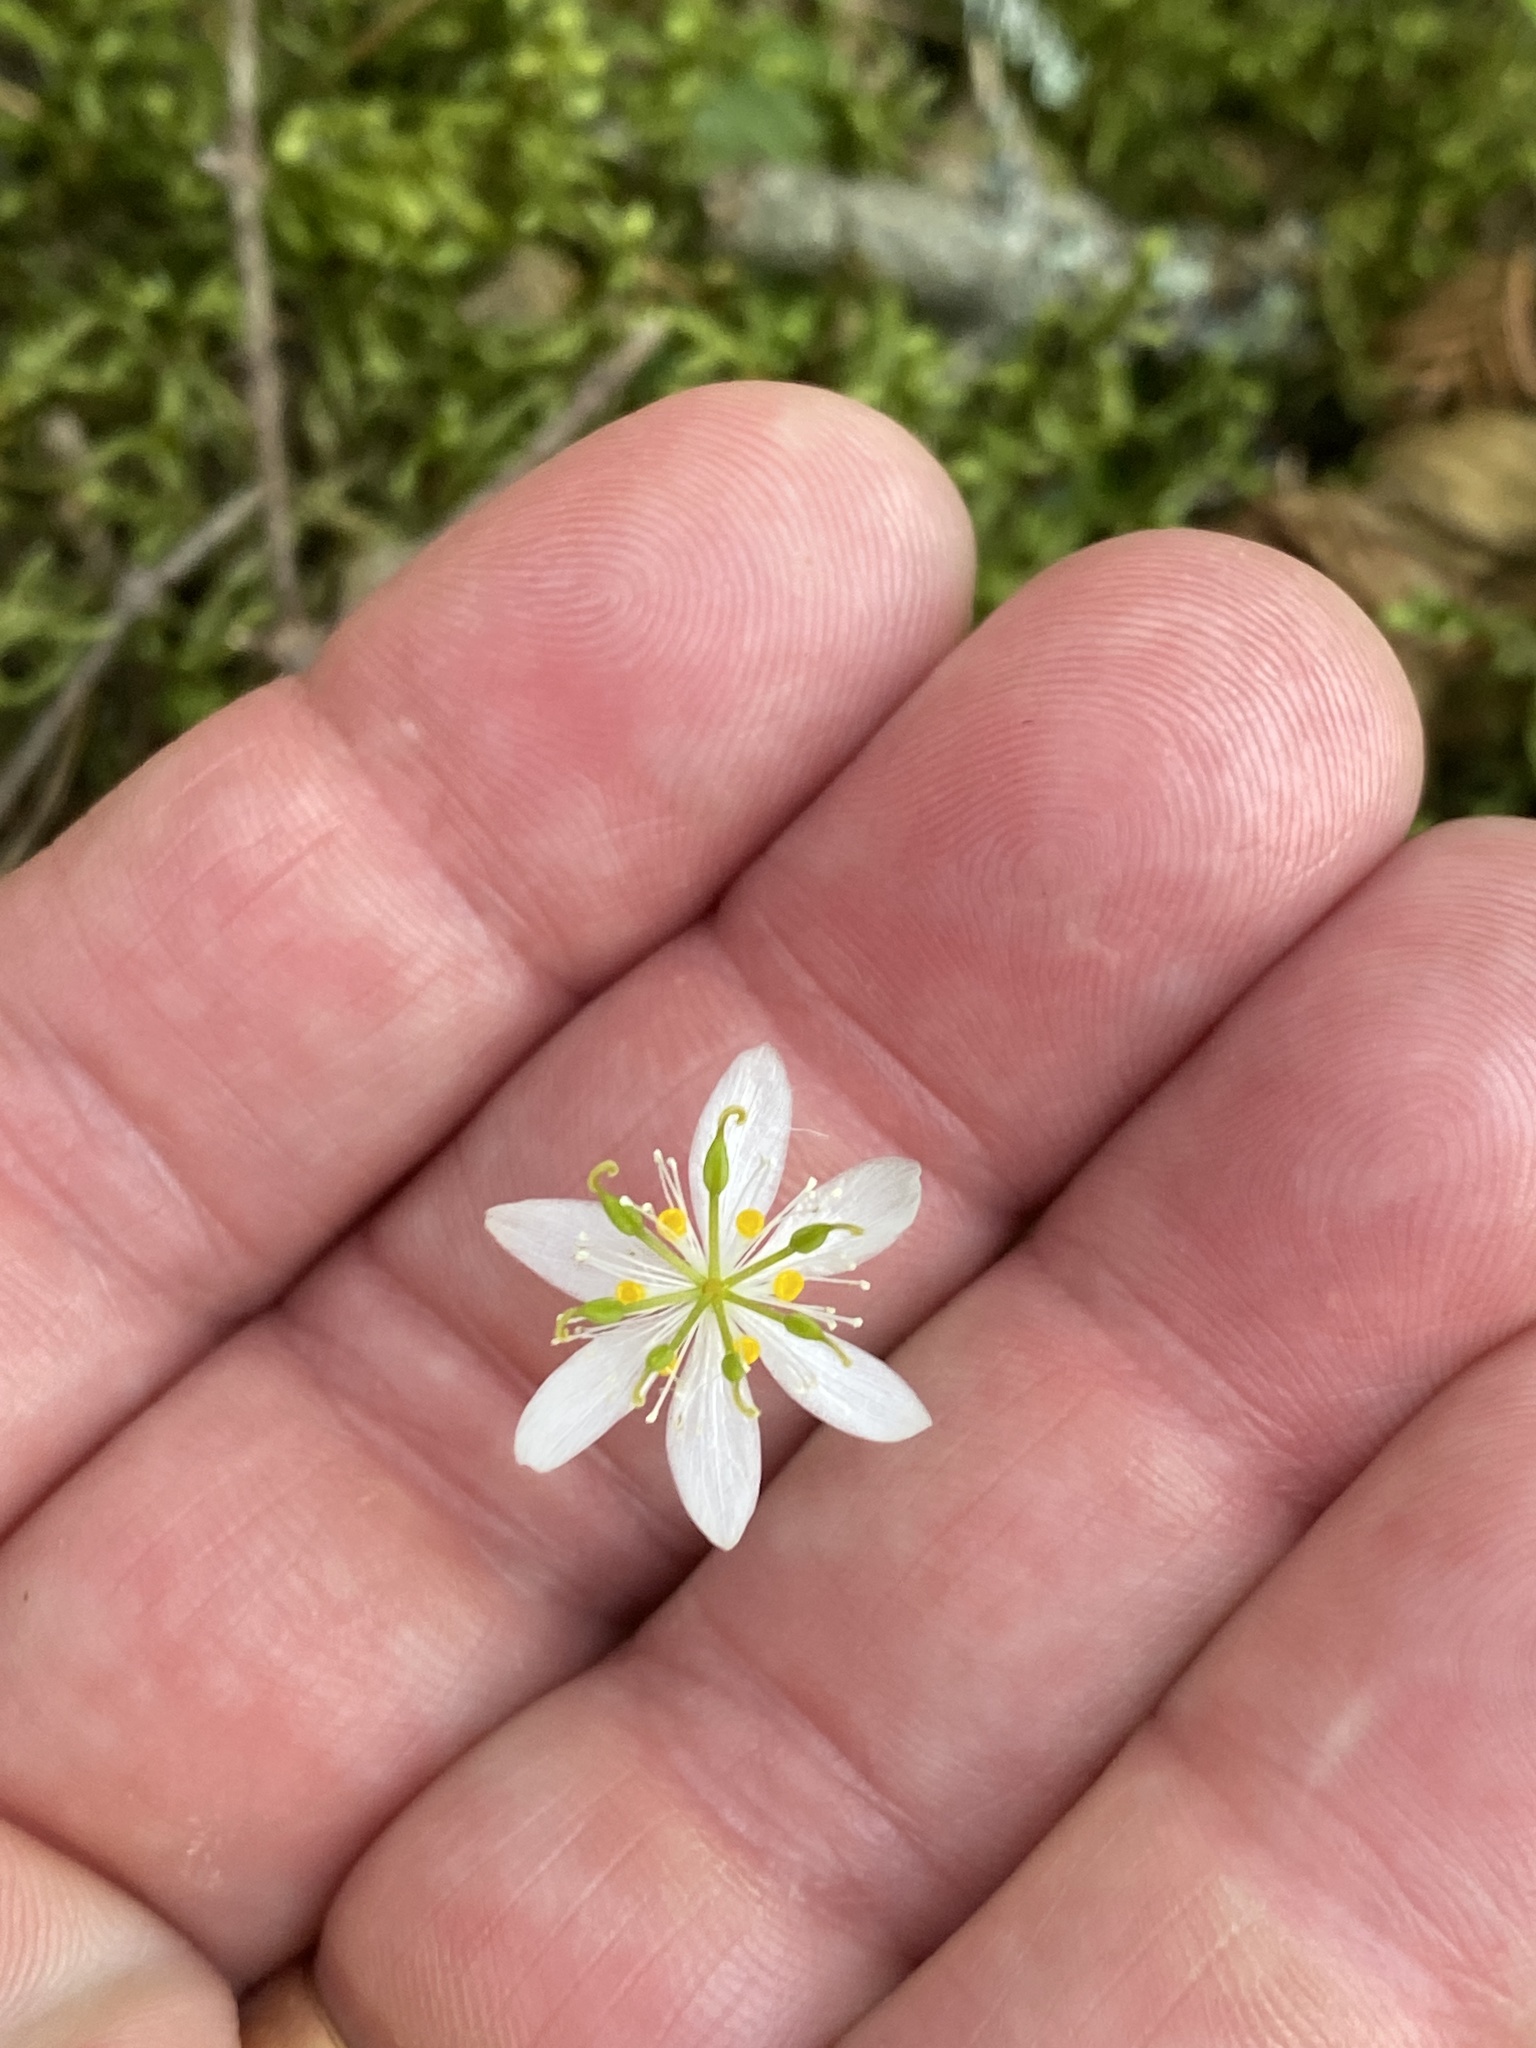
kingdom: Plantae
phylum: Tracheophyta
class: Magnoliopsida
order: Ranunculales
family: Ranunculaceae
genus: Coptis
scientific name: Coptis trifolia
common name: Canker-root
